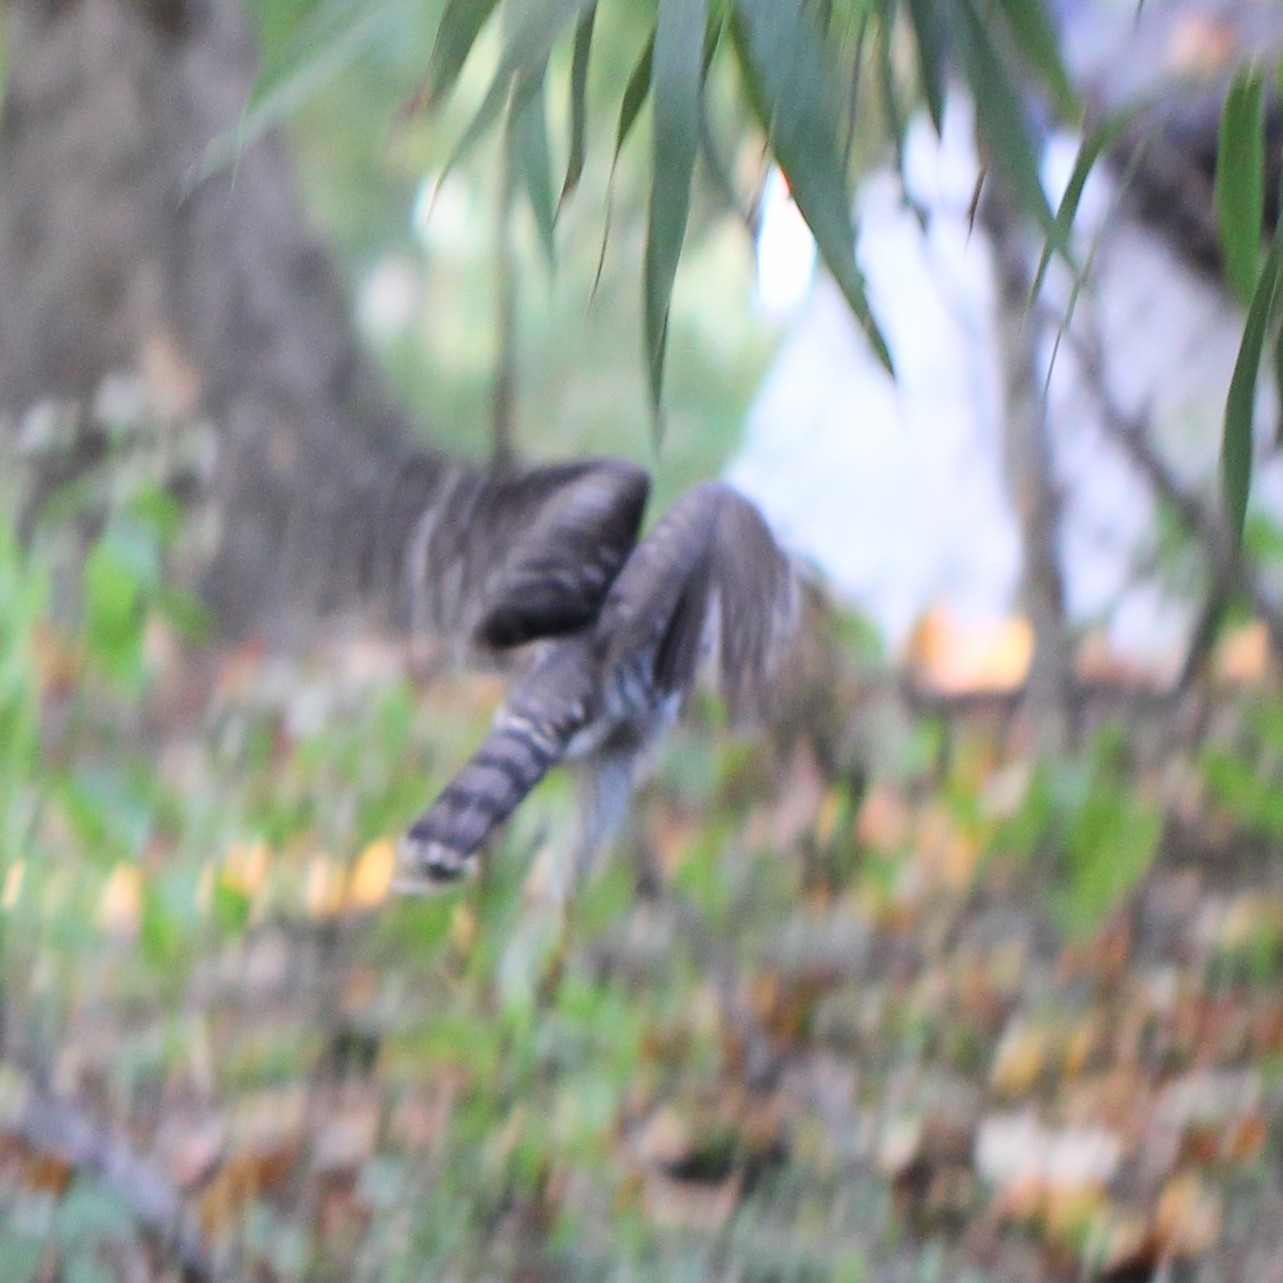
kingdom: Animalia
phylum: Chordata
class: Aves
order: Accipitriformes
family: Accipitridae
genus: Accipiter
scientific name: Accipiter cooperii
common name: Cooper's hawk
